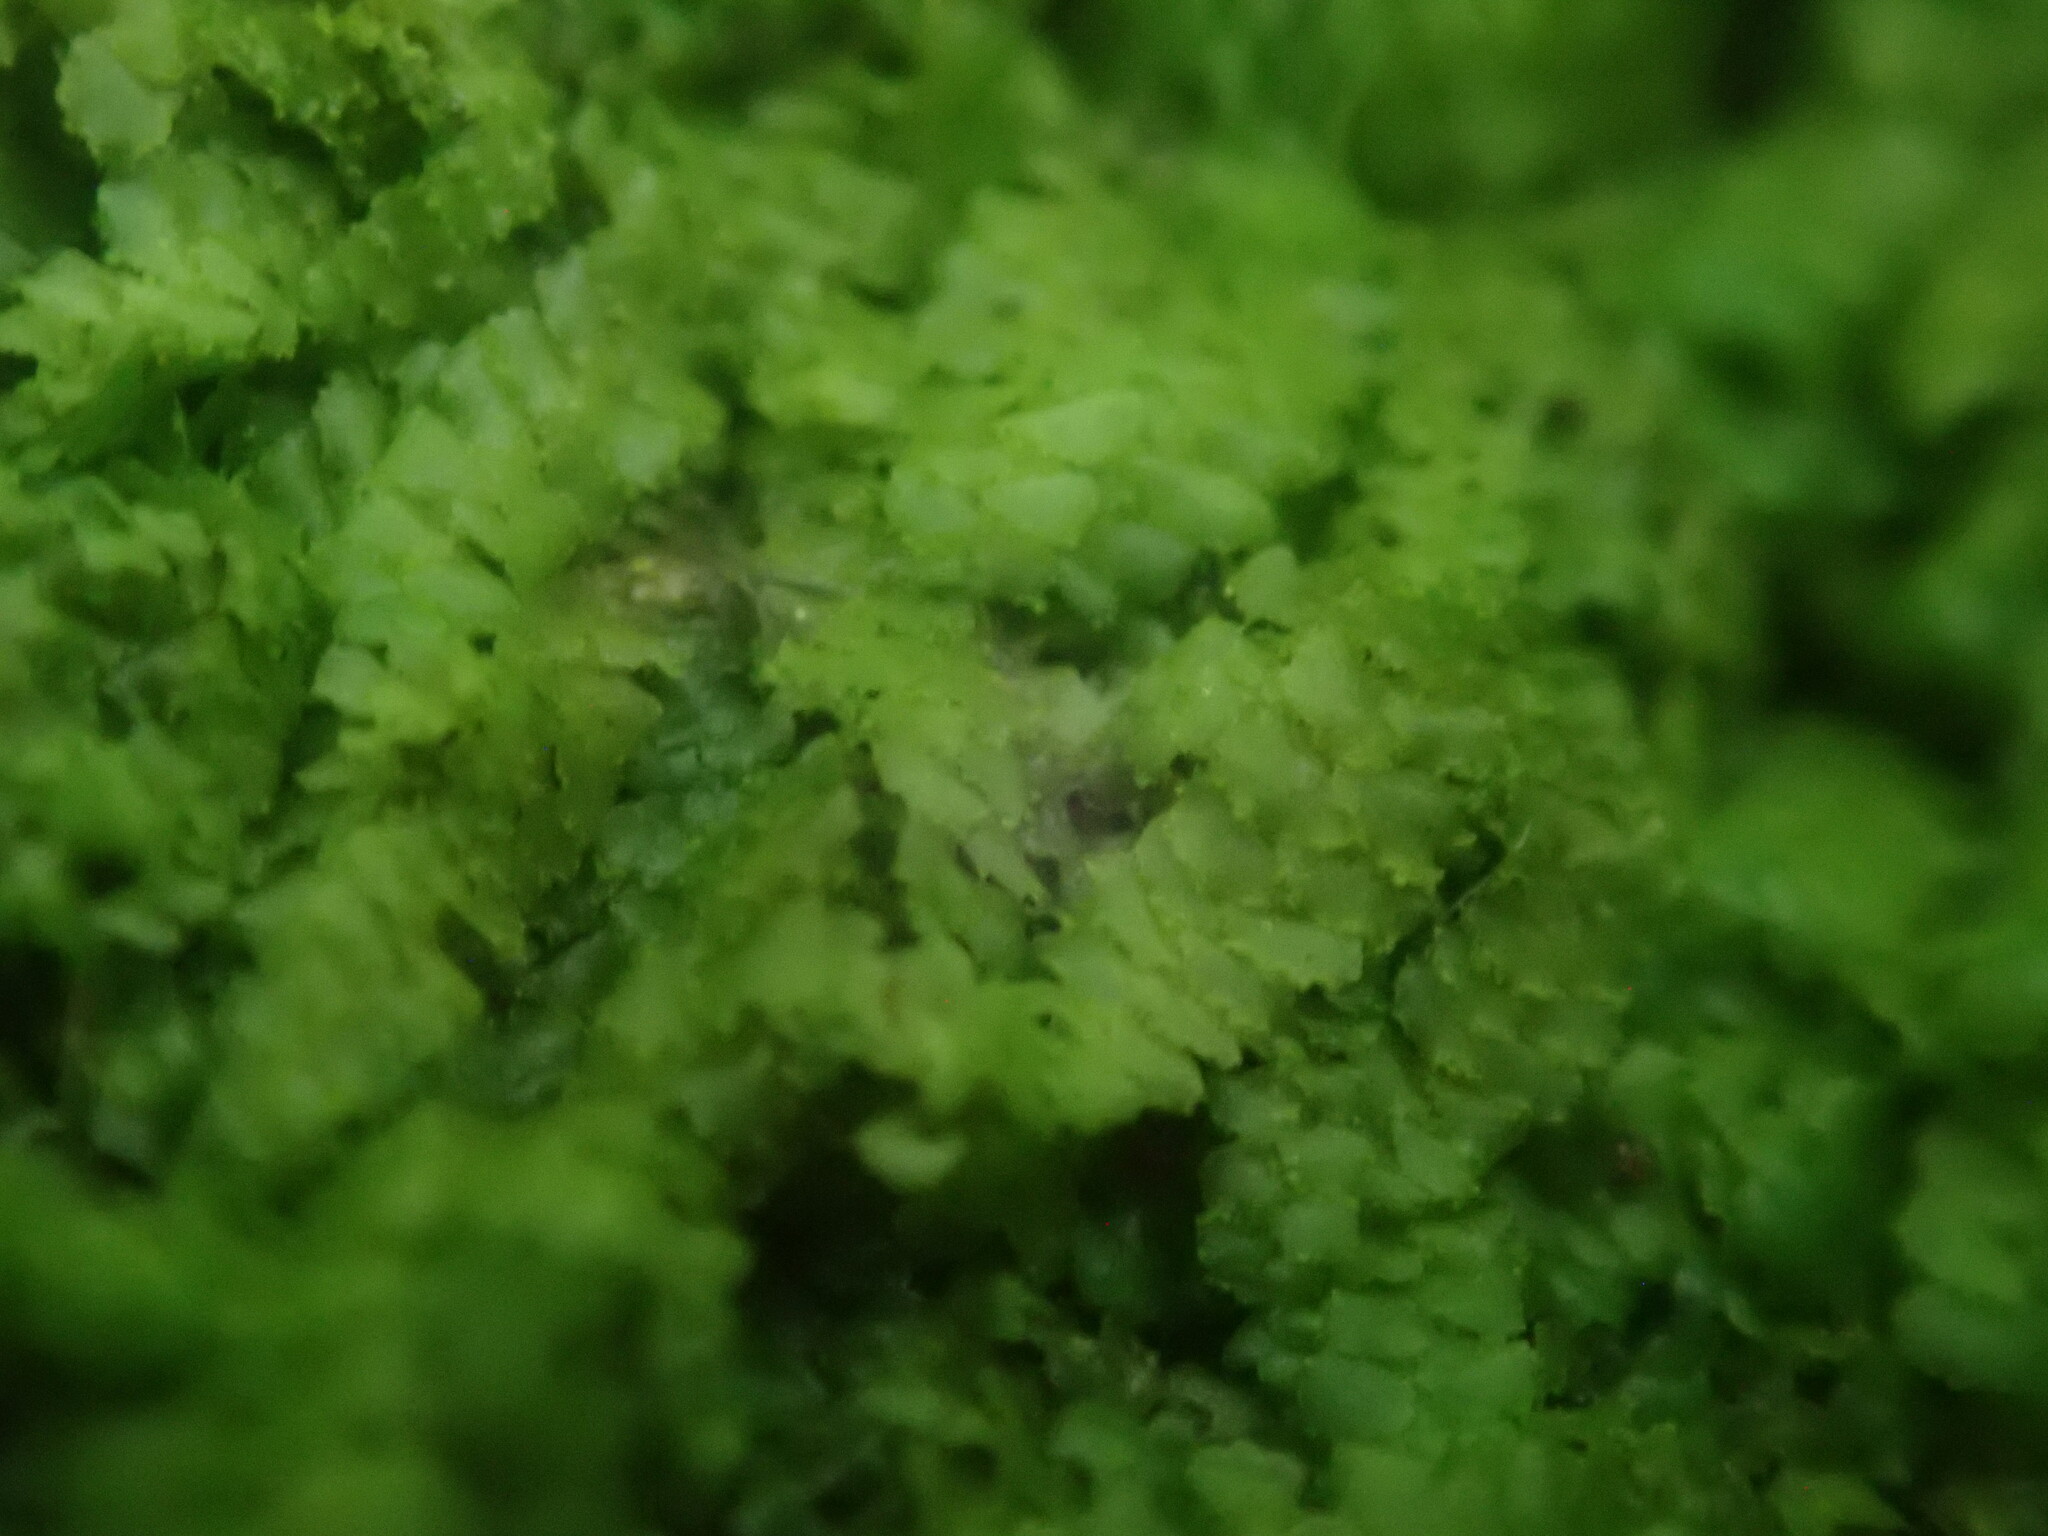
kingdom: Plantae
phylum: Marchantiophyta
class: Jungermanniopsida
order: Porellales
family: Radulaceae
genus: Radula
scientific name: Radula complanata
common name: Flat-leaved scalewort
